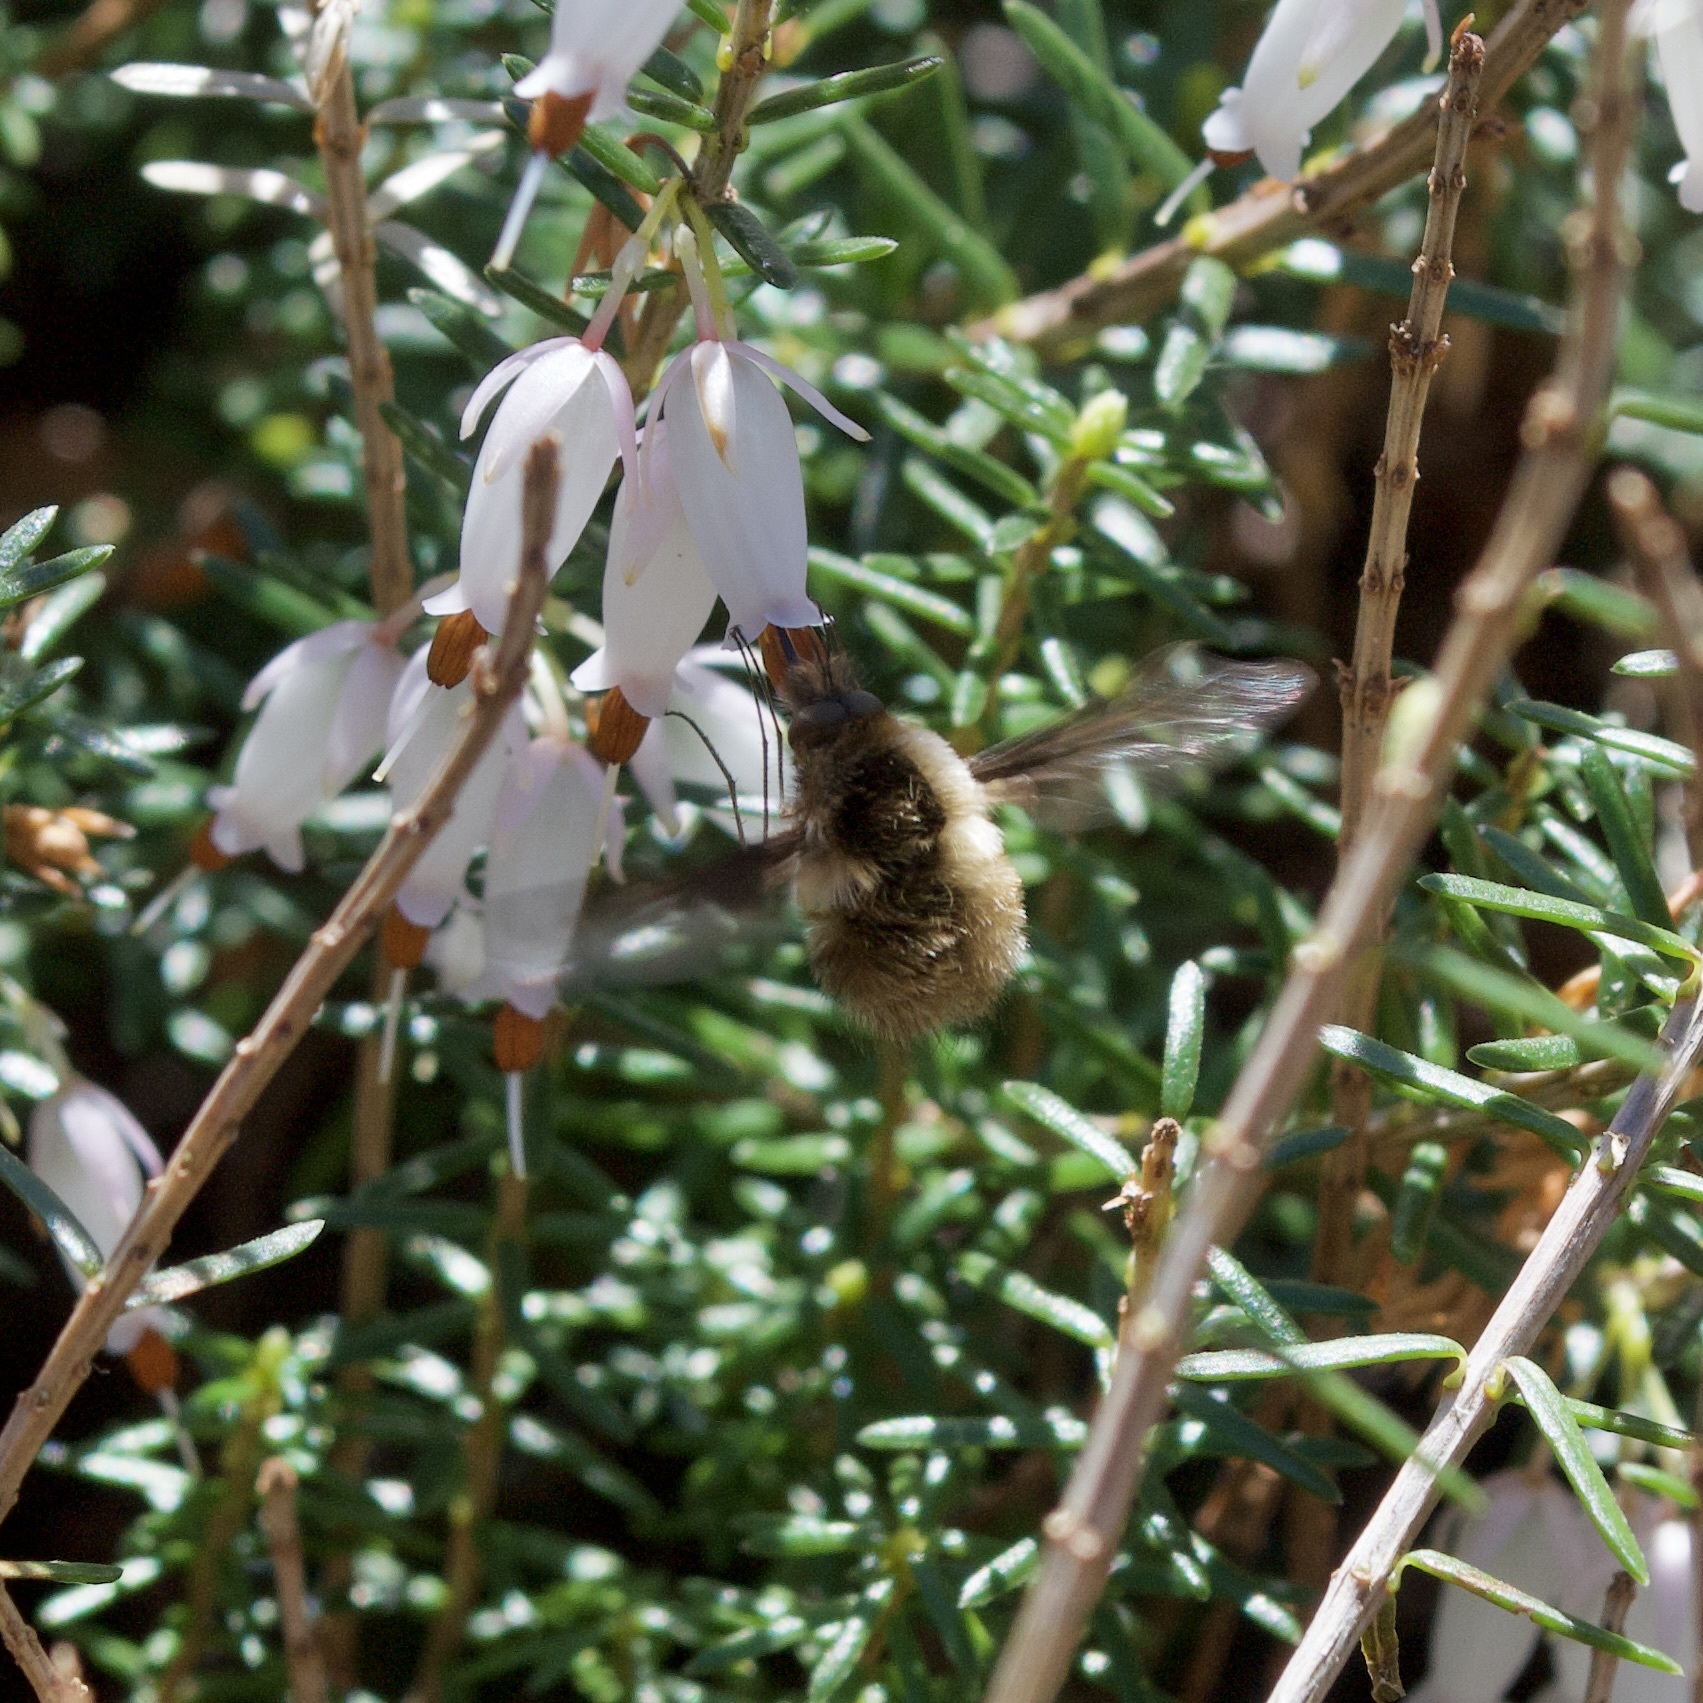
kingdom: Animalia
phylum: Arthropoda
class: Insecta
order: Diptera
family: Bombyliidae
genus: Bombylius
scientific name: Bombylius major
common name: Bee fly
